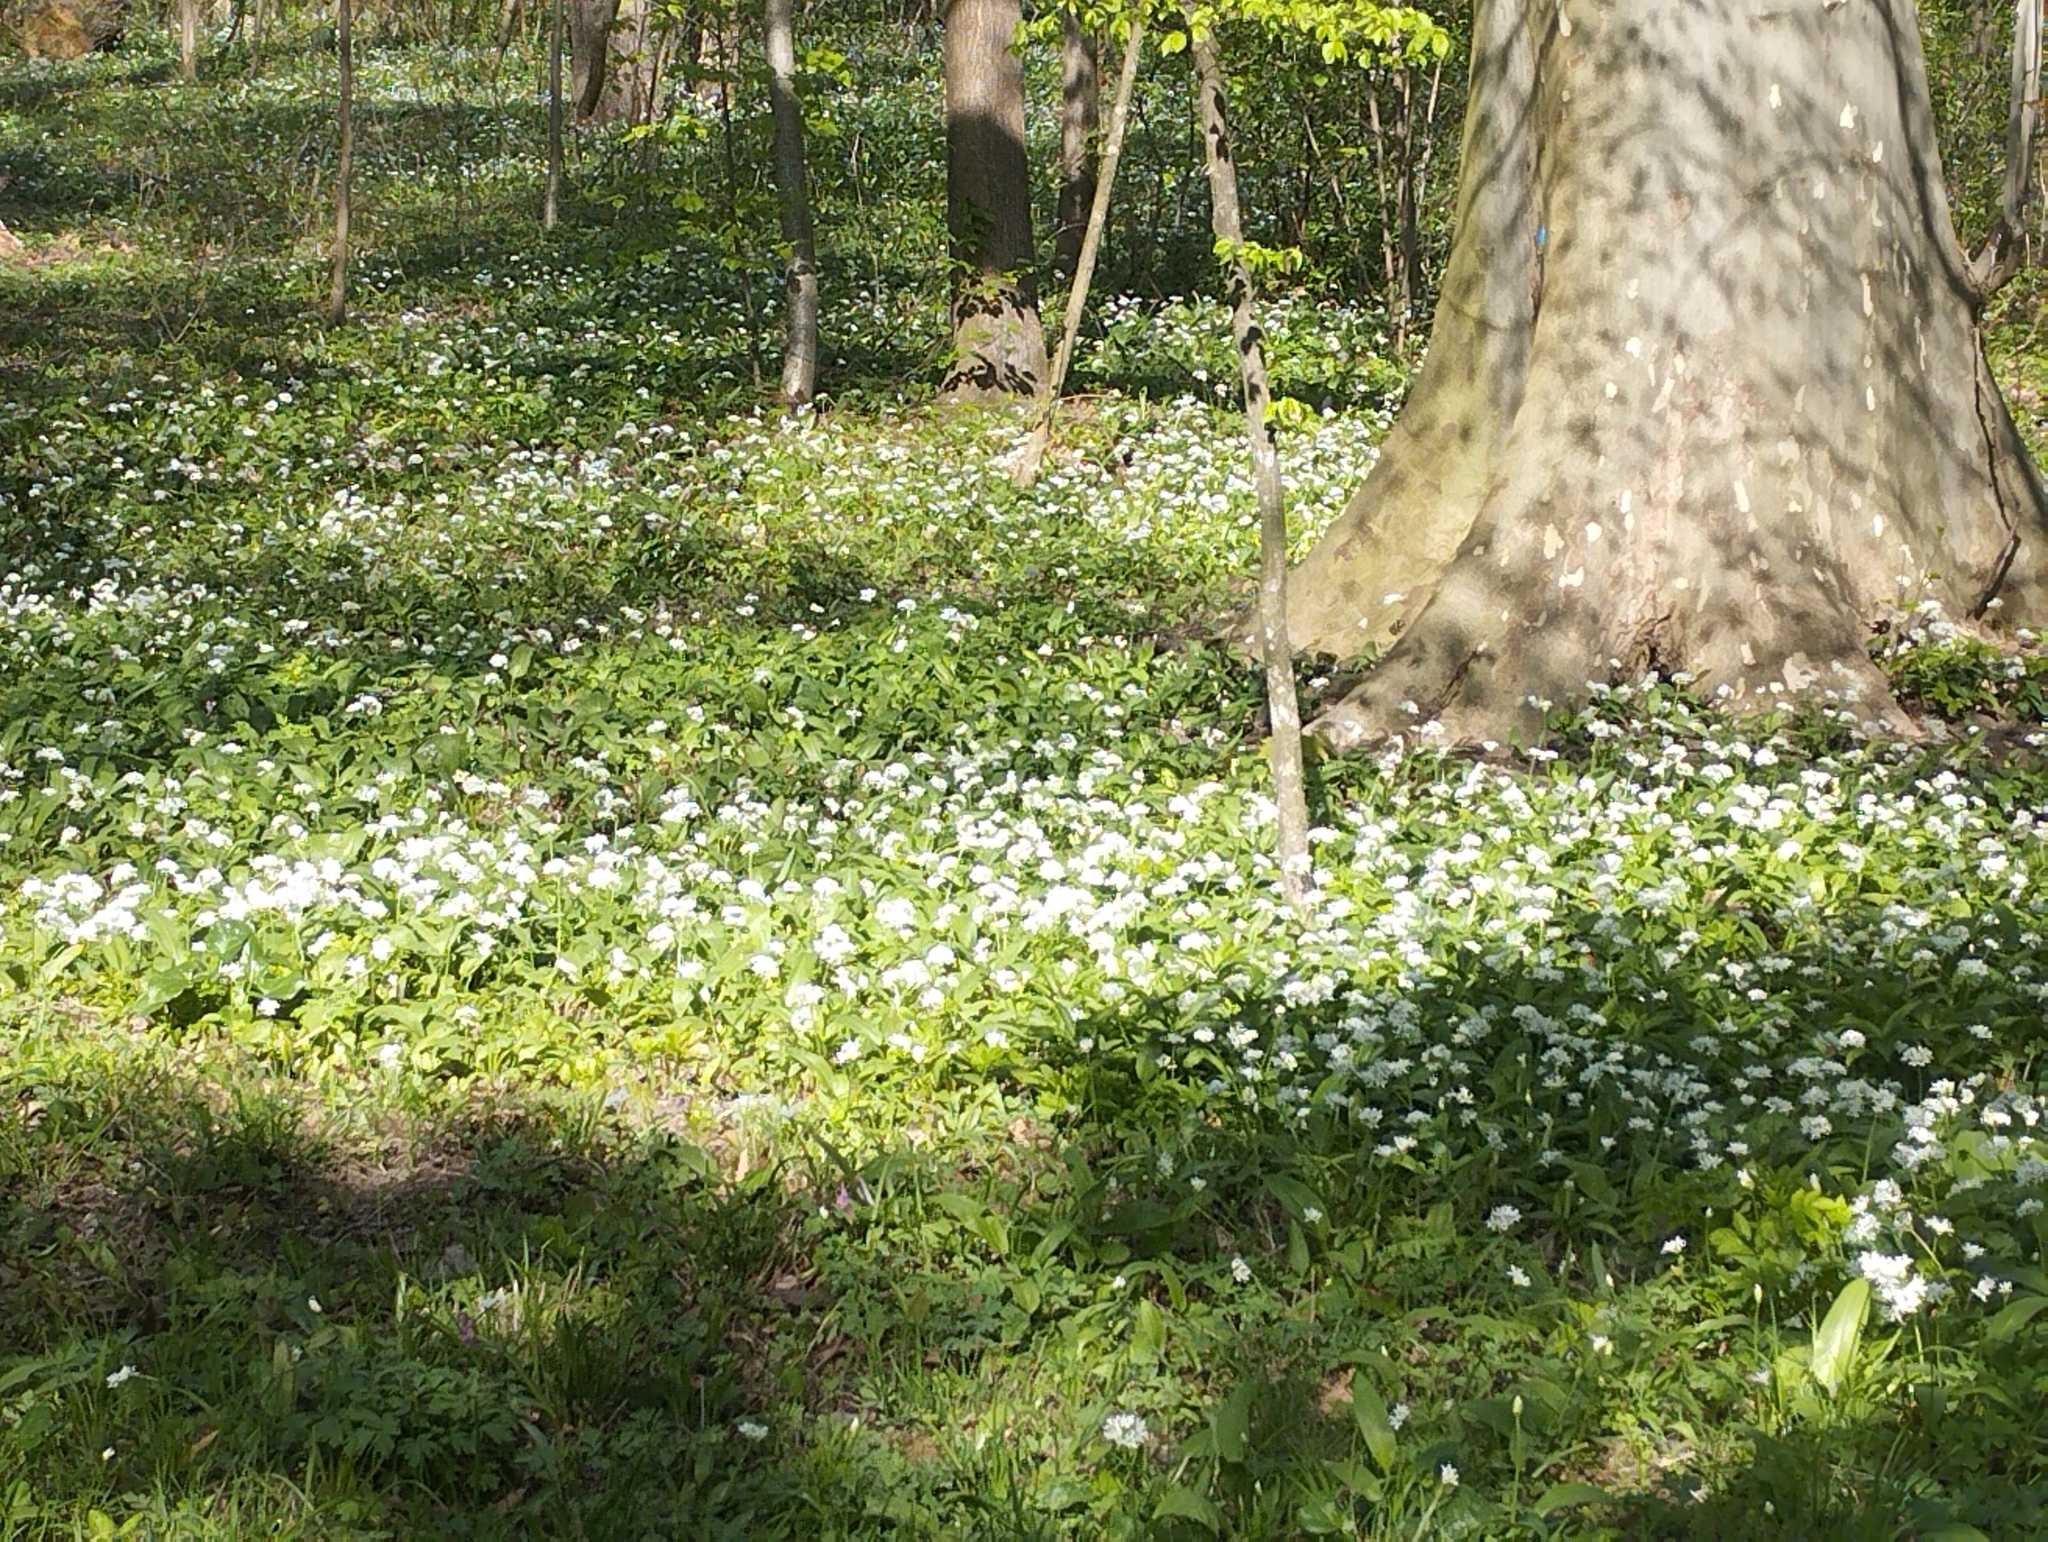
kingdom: Plantae
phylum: Tracheophyta
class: Liliopsida
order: Asparagales
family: Amaryllidaceae
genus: Allium
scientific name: Allium ursinum
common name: Ramsons
